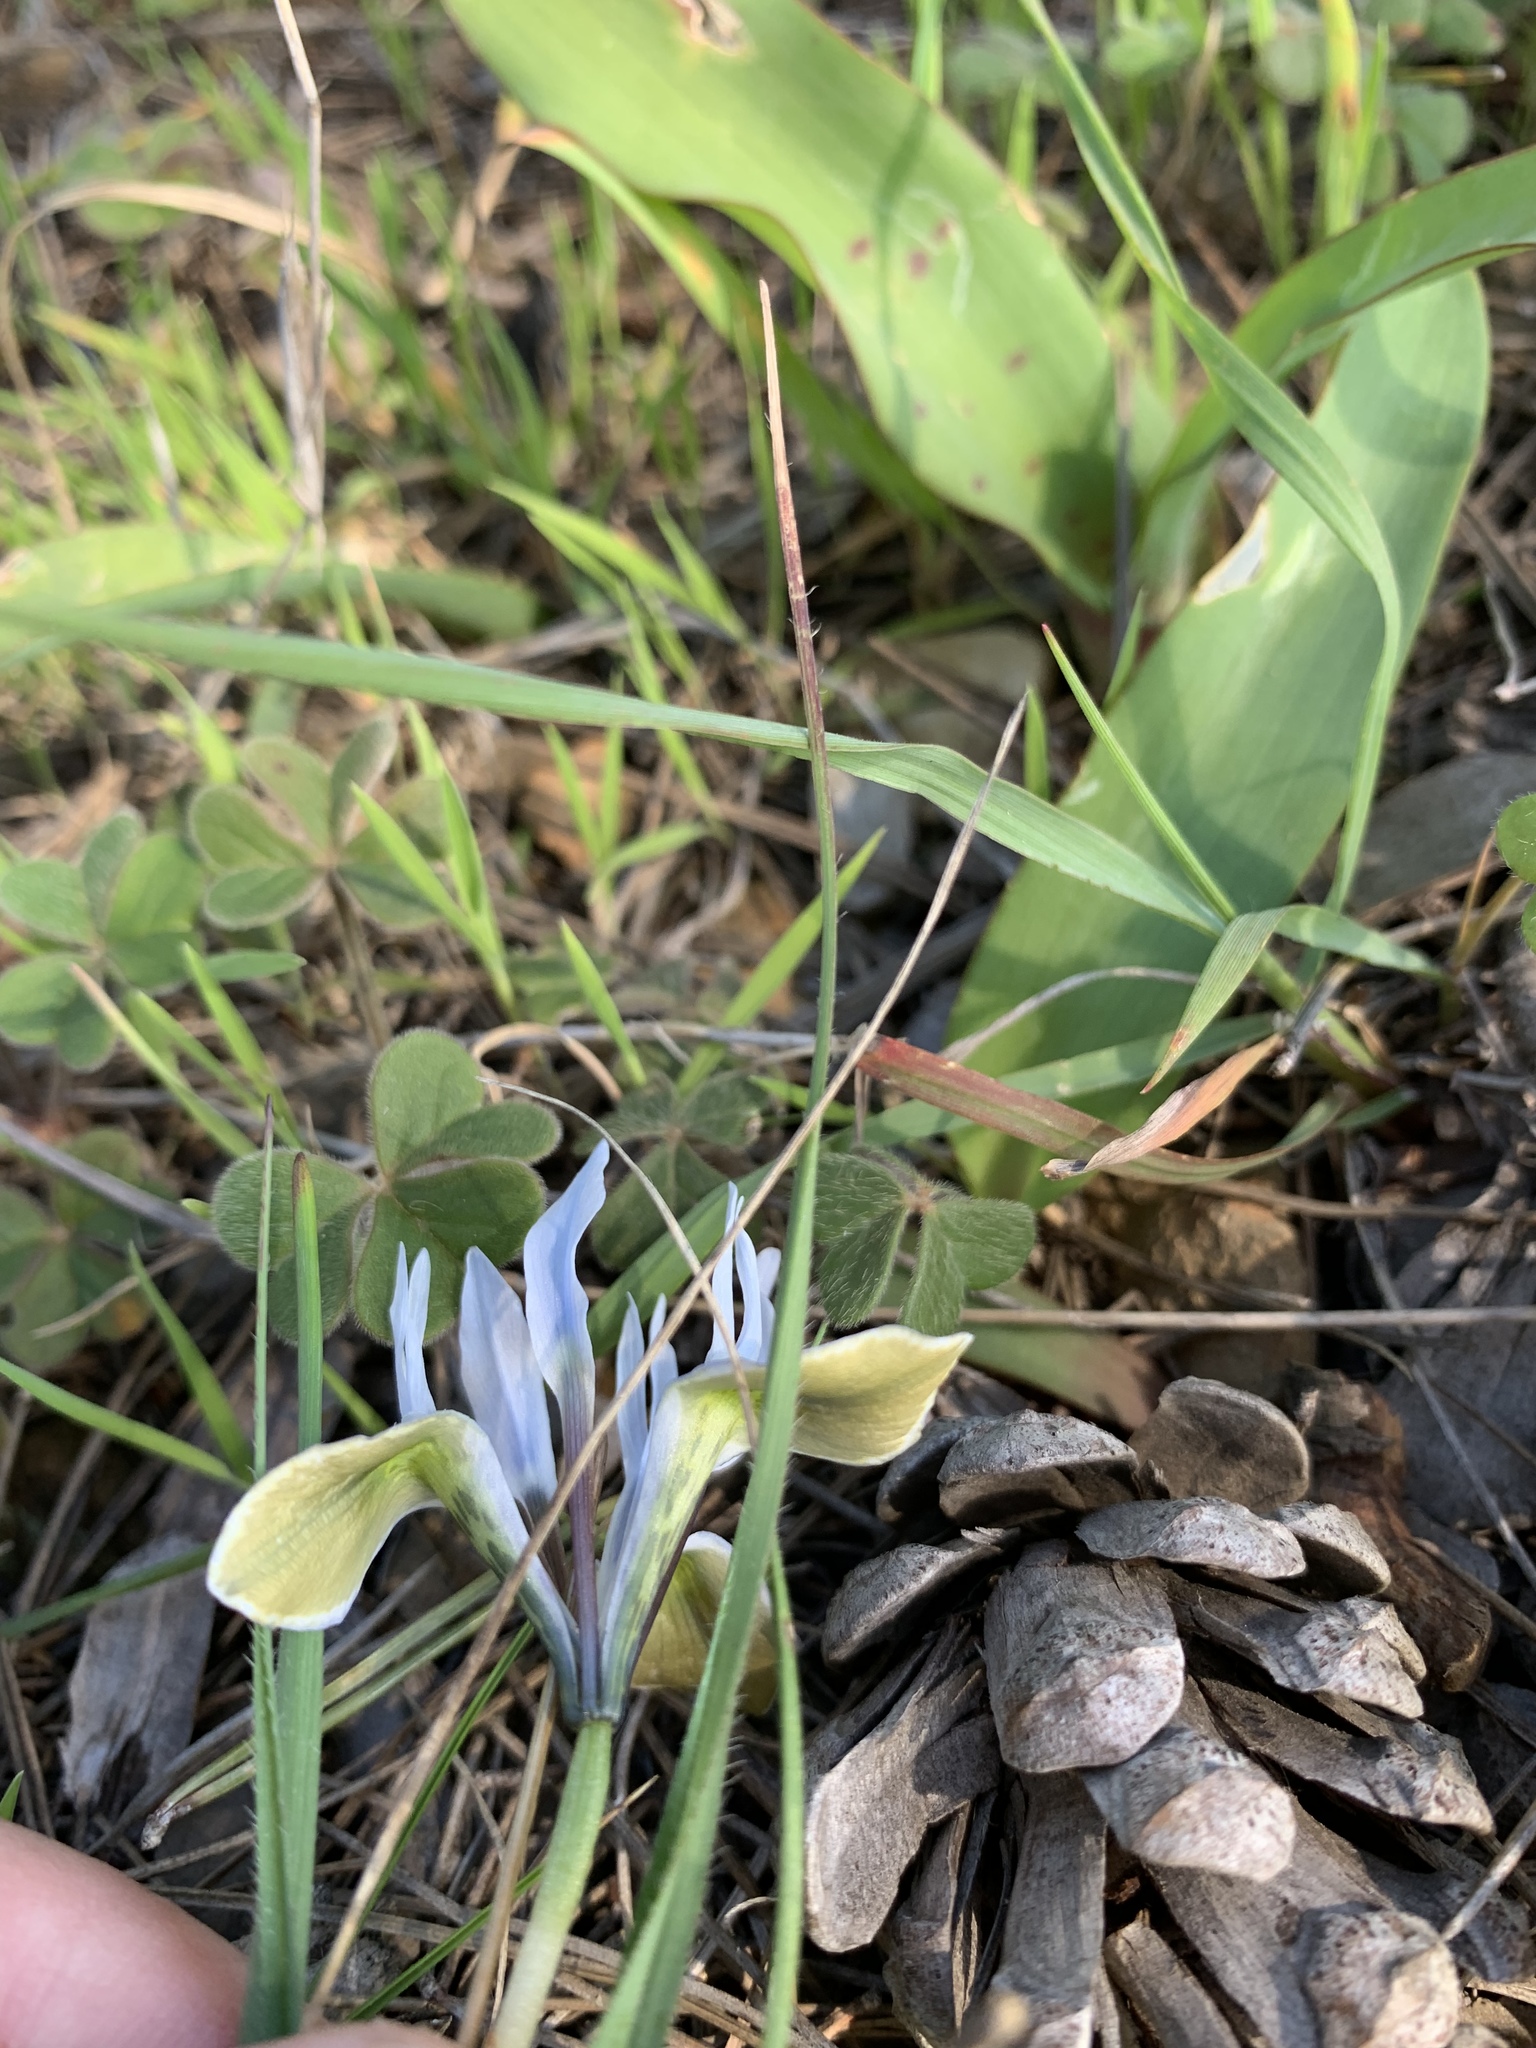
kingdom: Plantae
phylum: Tracheophyta
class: Liliopsida
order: Asparagales
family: Iridaceae
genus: Moraea
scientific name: Moraea ciliata
